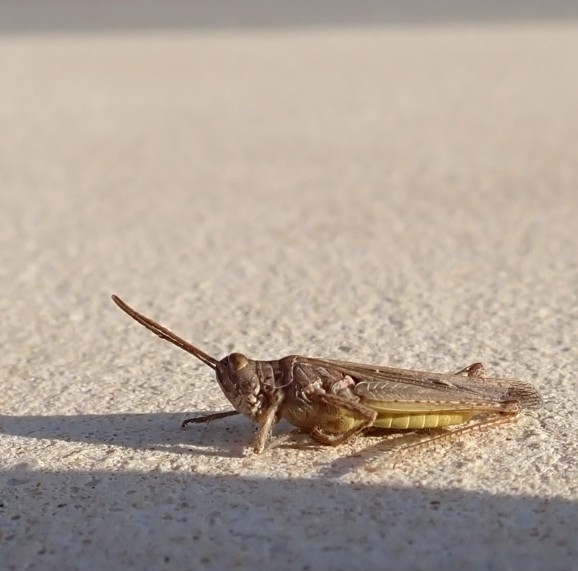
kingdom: Animalia
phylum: Arthropoda
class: Insecta
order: Orthoptera
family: Acrididae
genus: Chorthippus
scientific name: Chorthippus brunneus
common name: Field grasshopper
